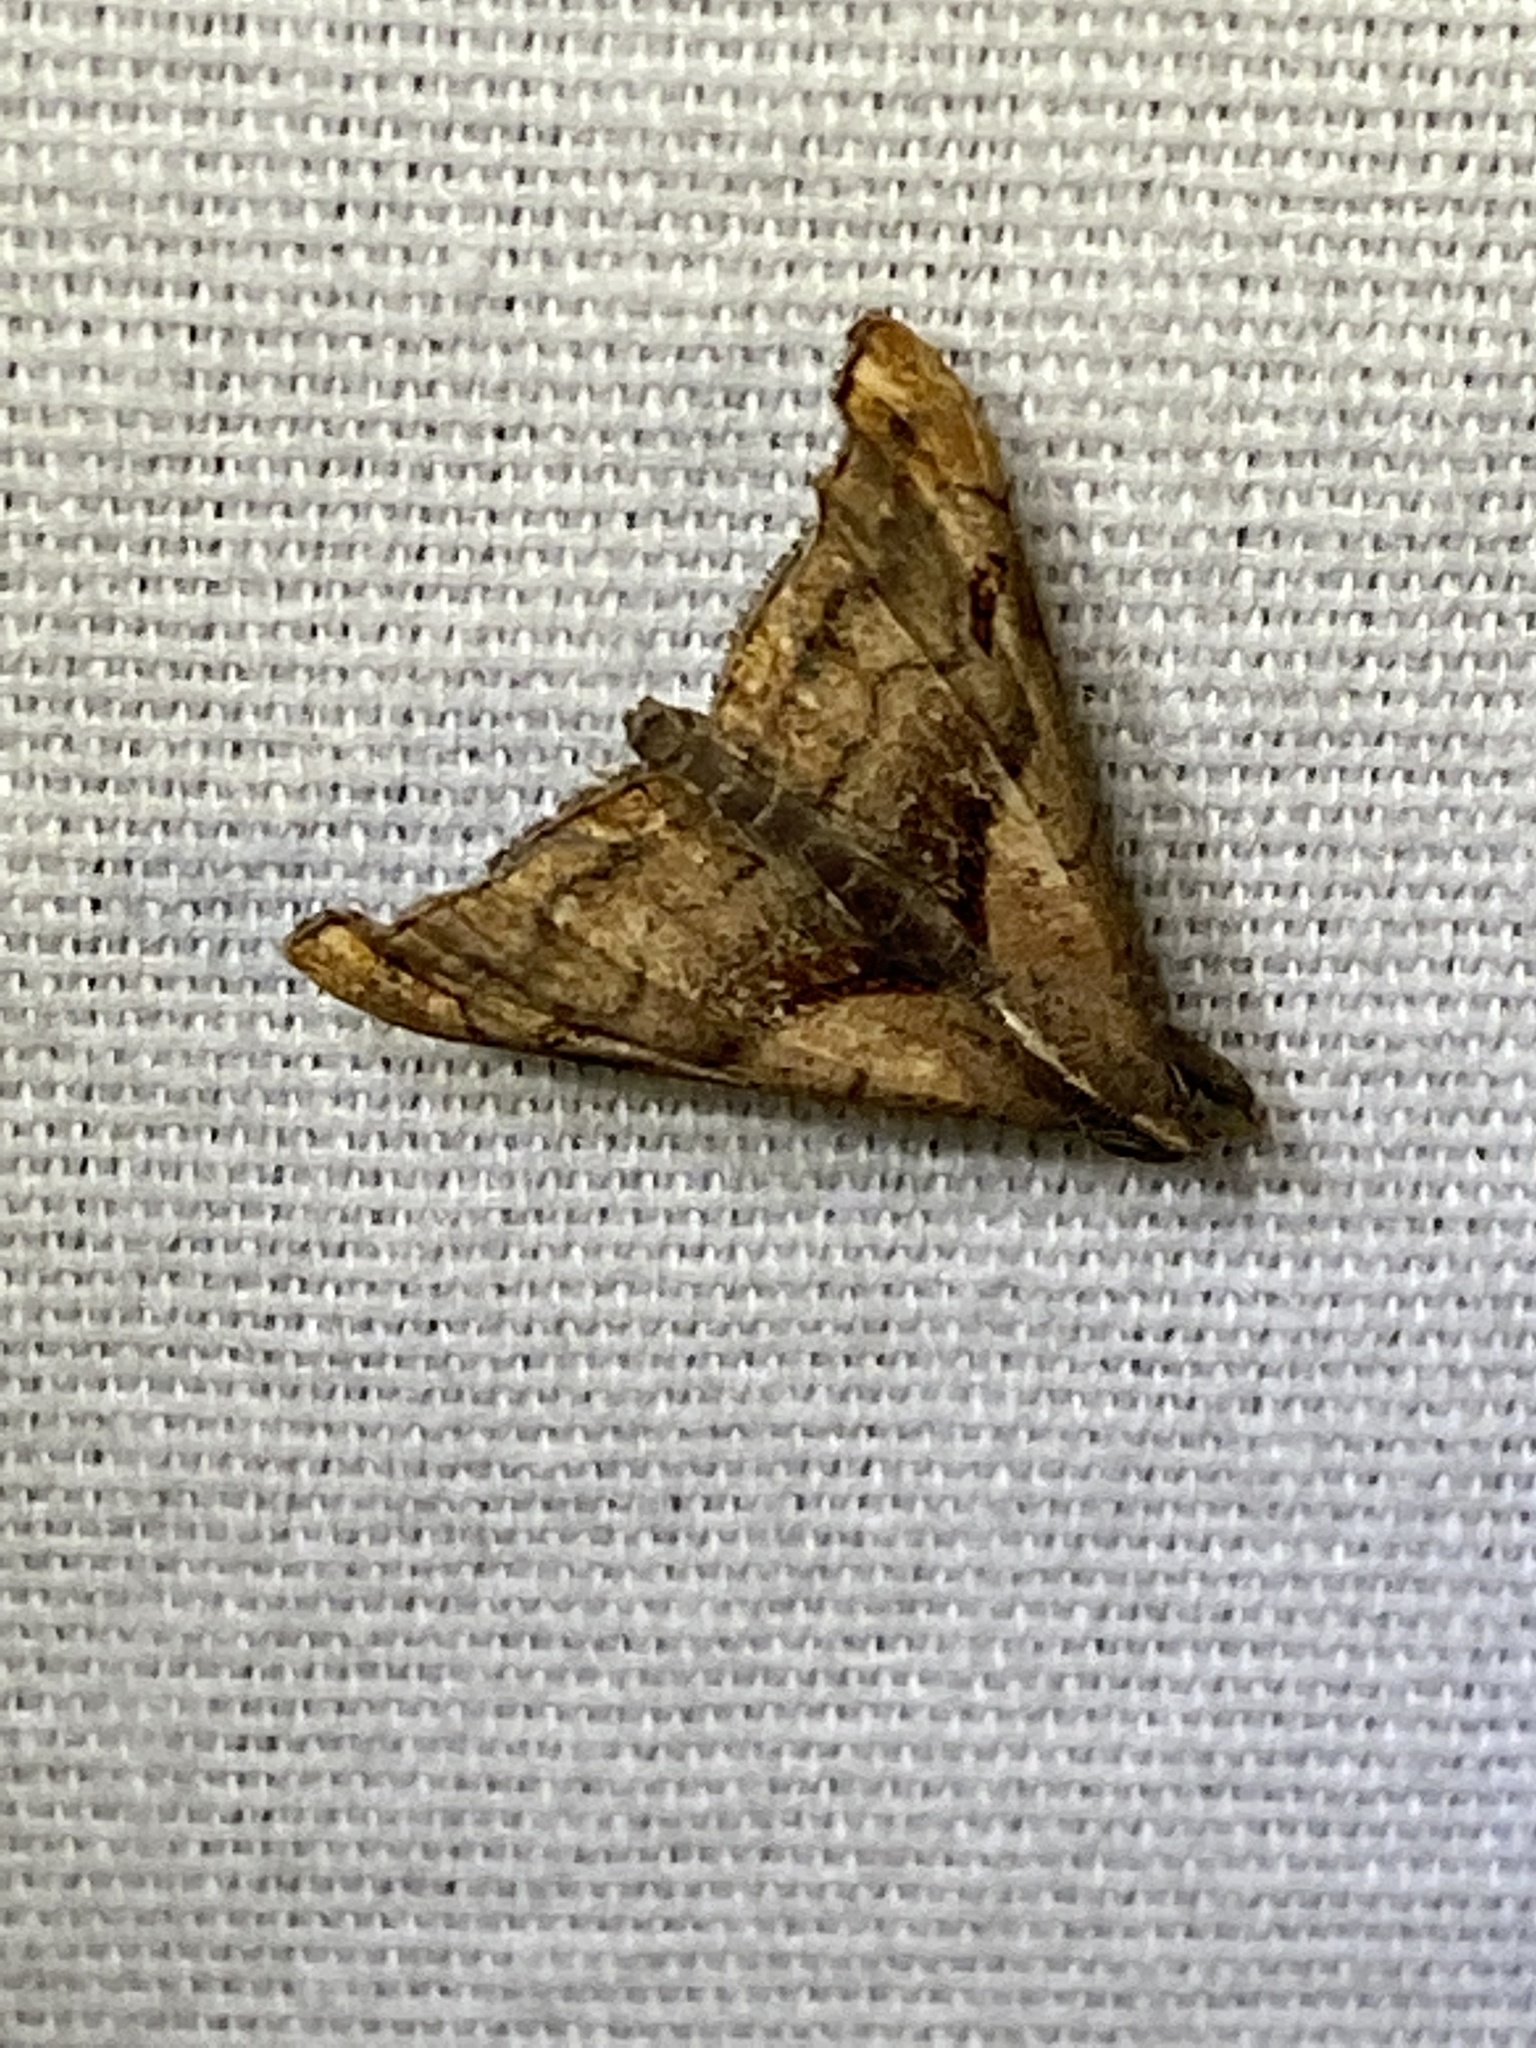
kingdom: Animalia
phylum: Arthropoda
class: Insecta
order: Lepidoptera
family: Erebidae
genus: Palthis
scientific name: Palthis angulalis
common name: Dark-spotted palthis moth
